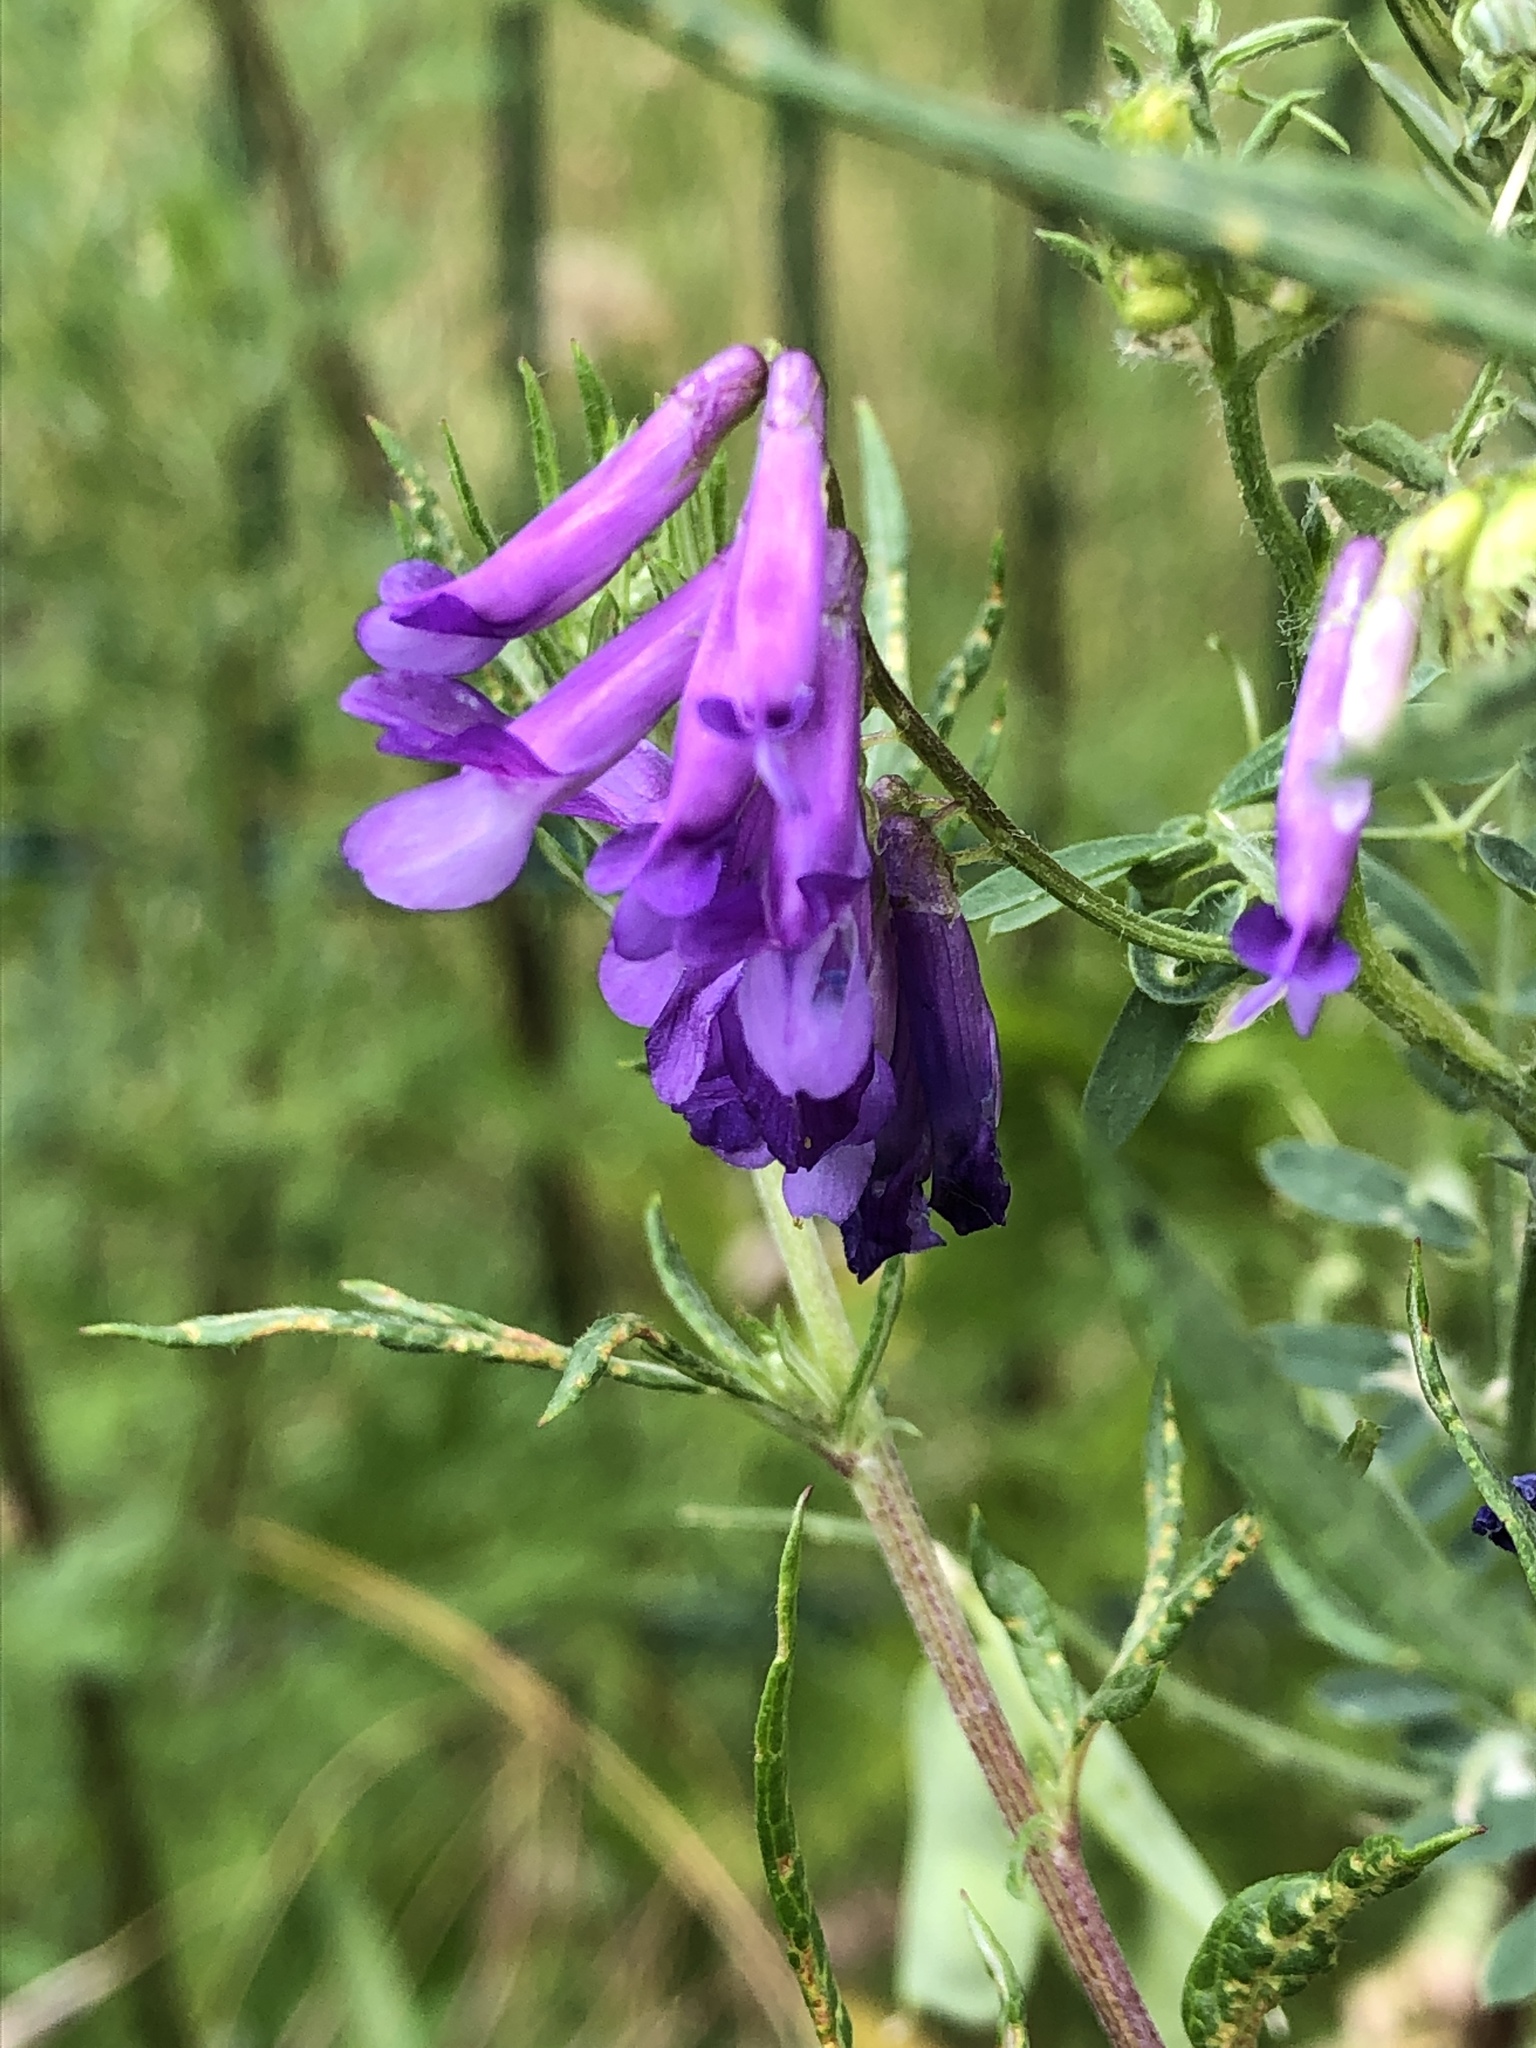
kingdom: Plantae
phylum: Tracheophyta
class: Magnoliopsida
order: Fabales
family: Fabaceae
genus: Vicia
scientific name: Vicia villosa
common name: Fodder vetch
